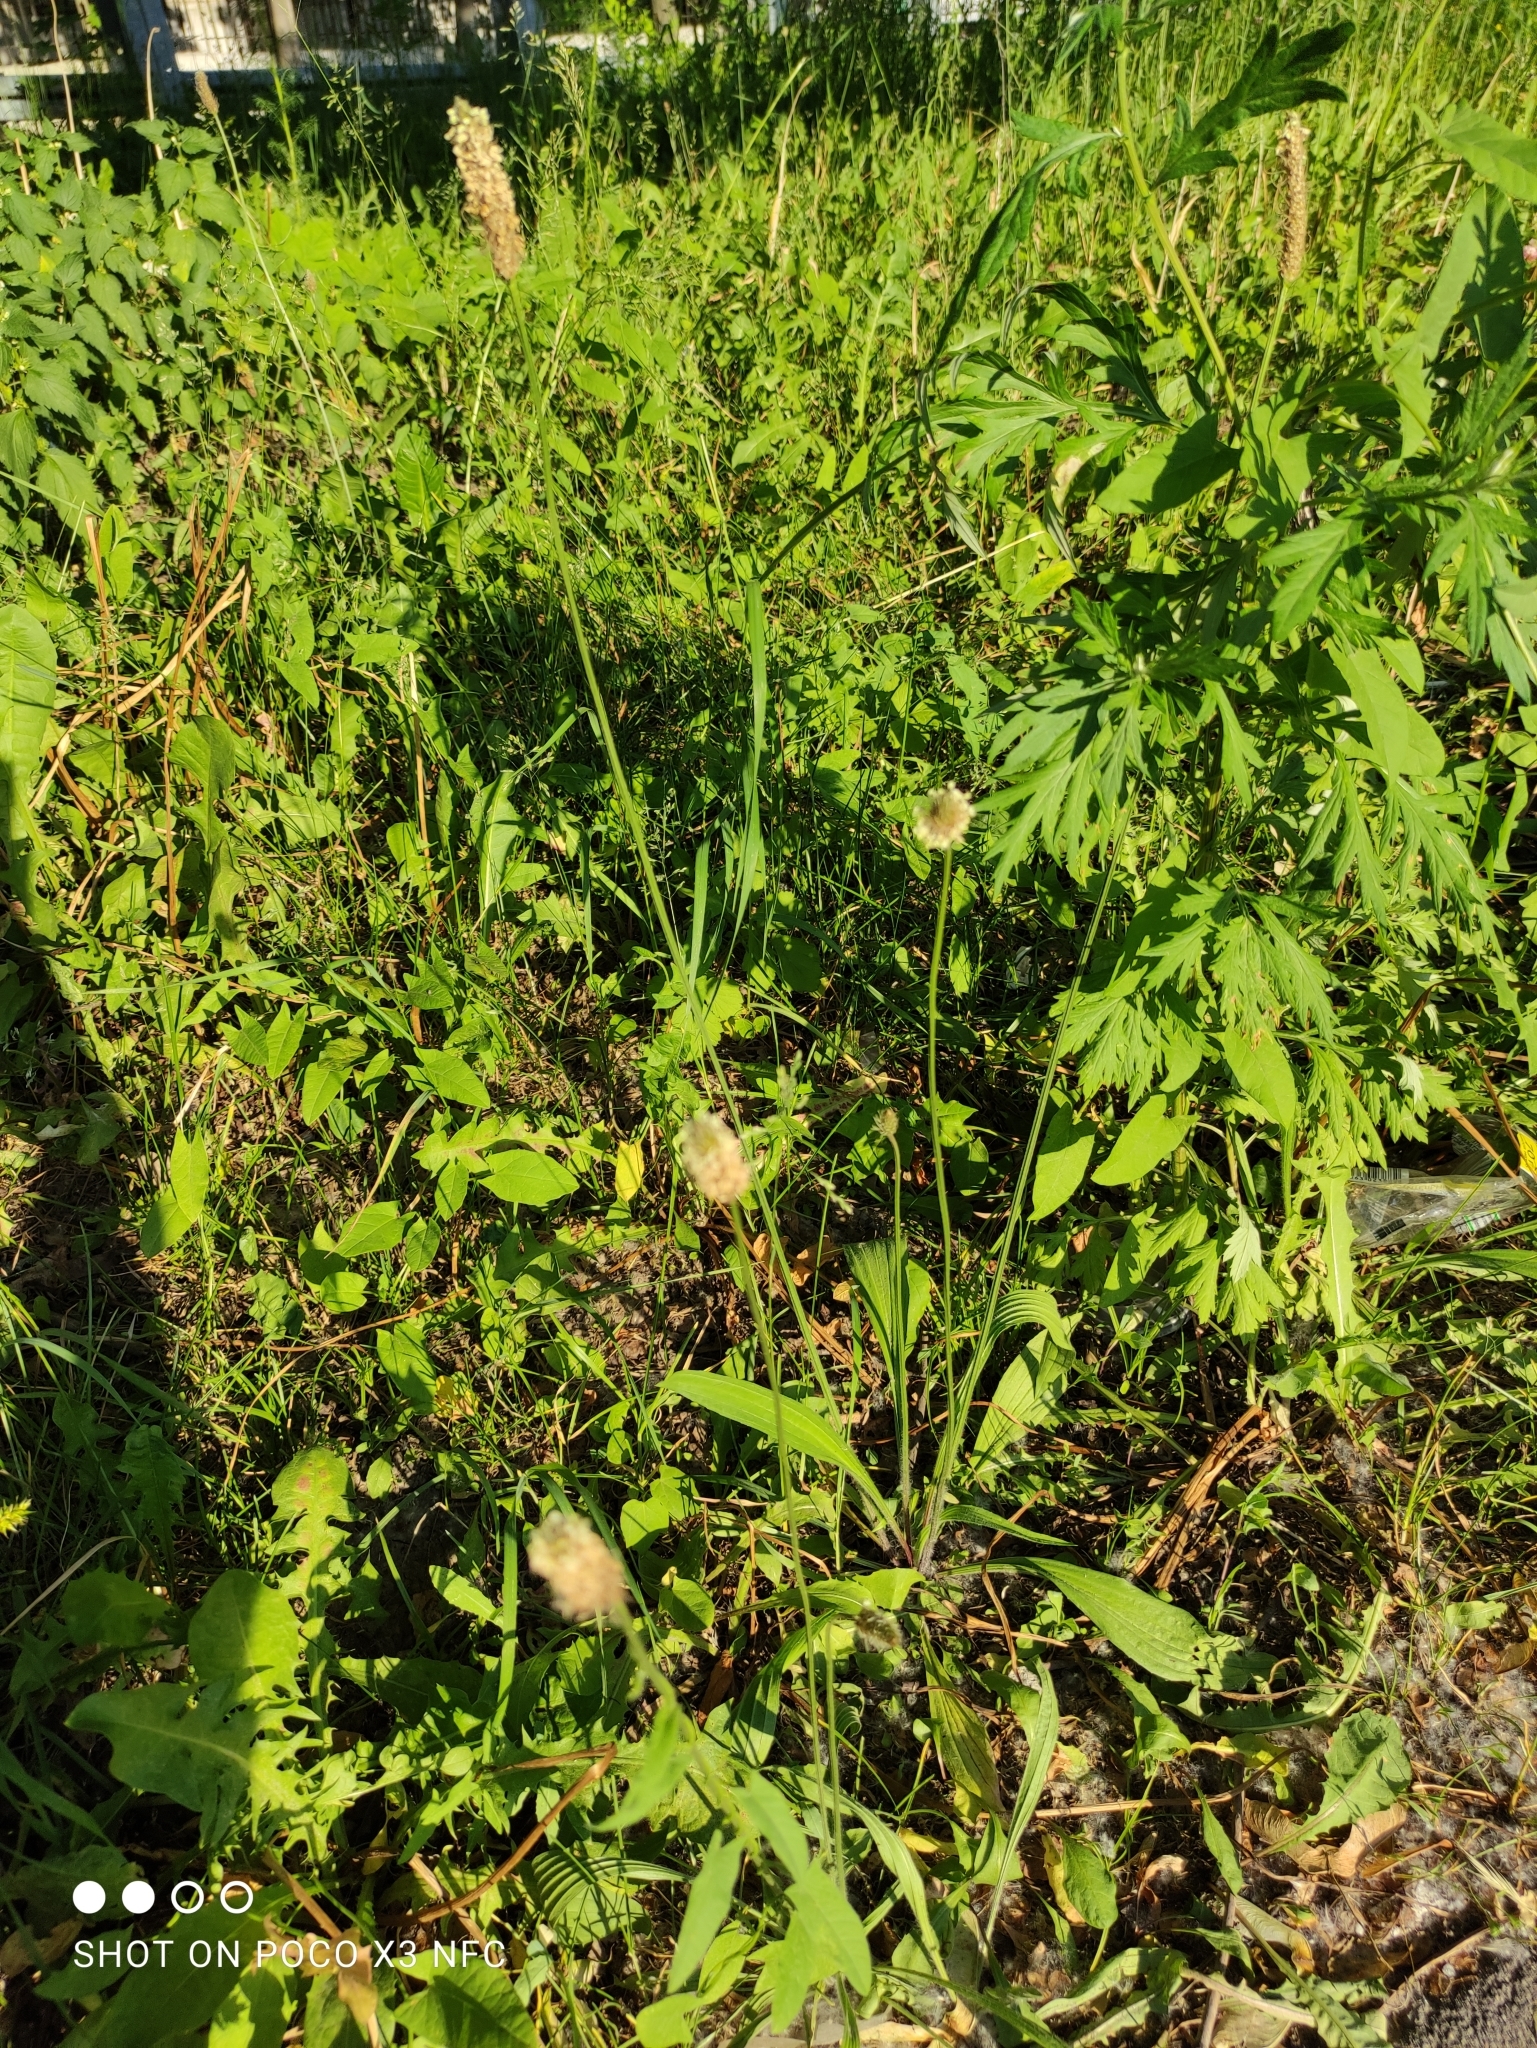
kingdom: Plantae
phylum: Tracheophyta
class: Magnoliopsida
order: Lamiales
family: Plantaginaceae
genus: Plantago
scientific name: Plantago lanceolata
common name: Ribwort plantain
